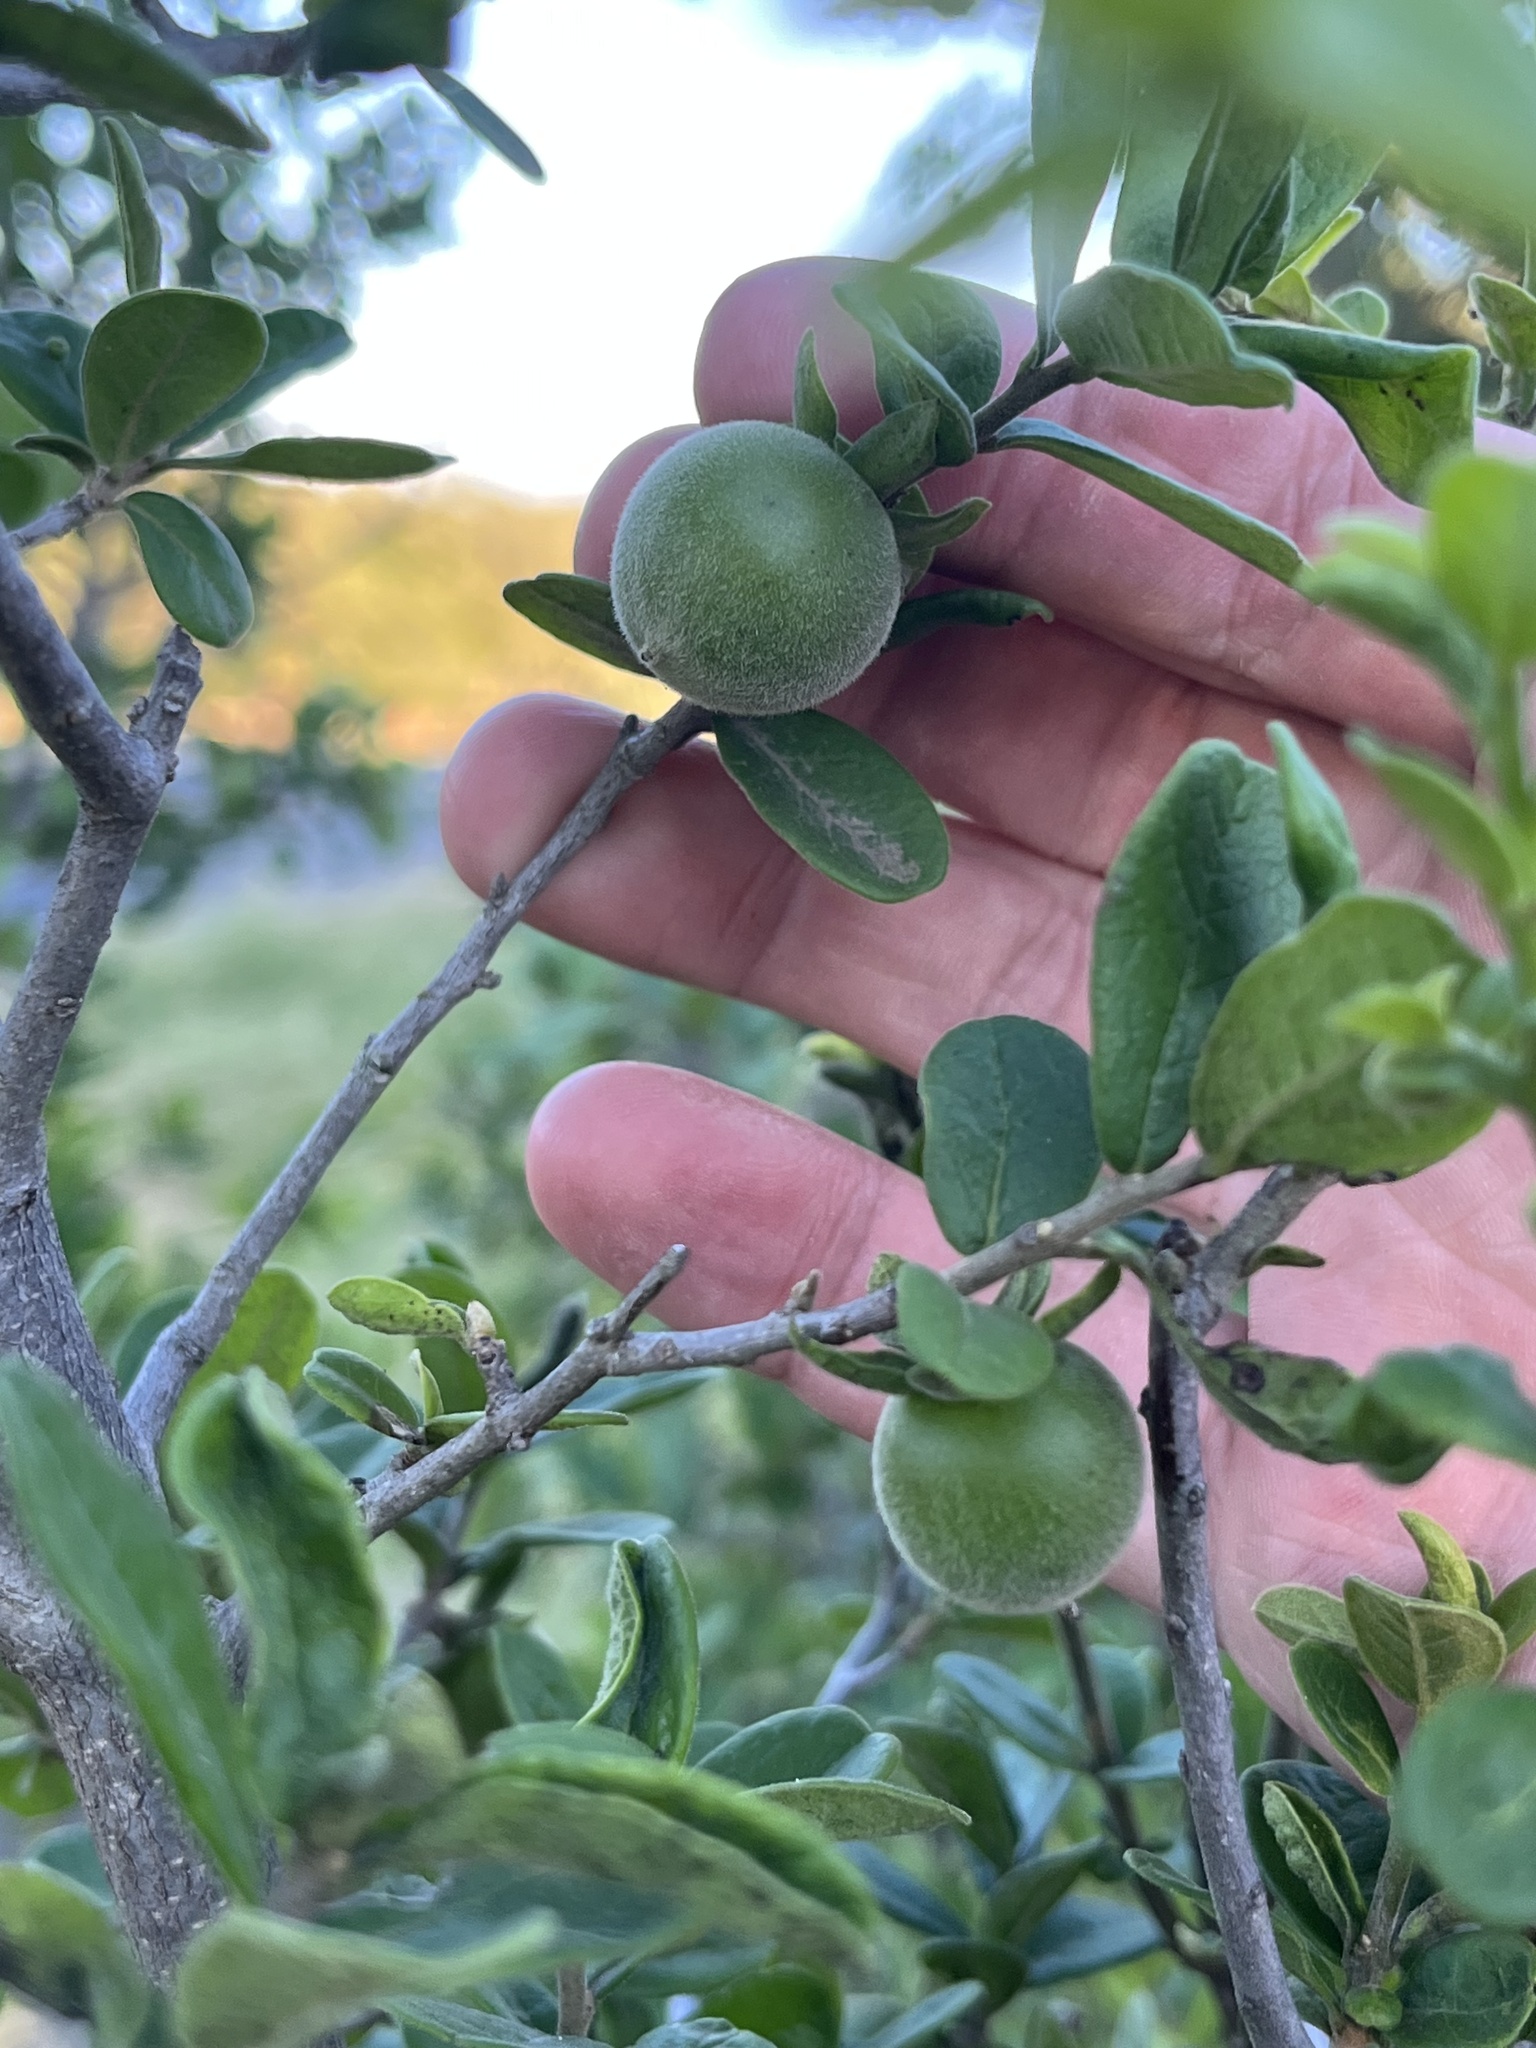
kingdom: Plantae
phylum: Tracheophyta
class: Magnoliopsida
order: Ericales
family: Ebenaceae
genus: Diospyros
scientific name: Diospyros texana
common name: Texas persimmon
